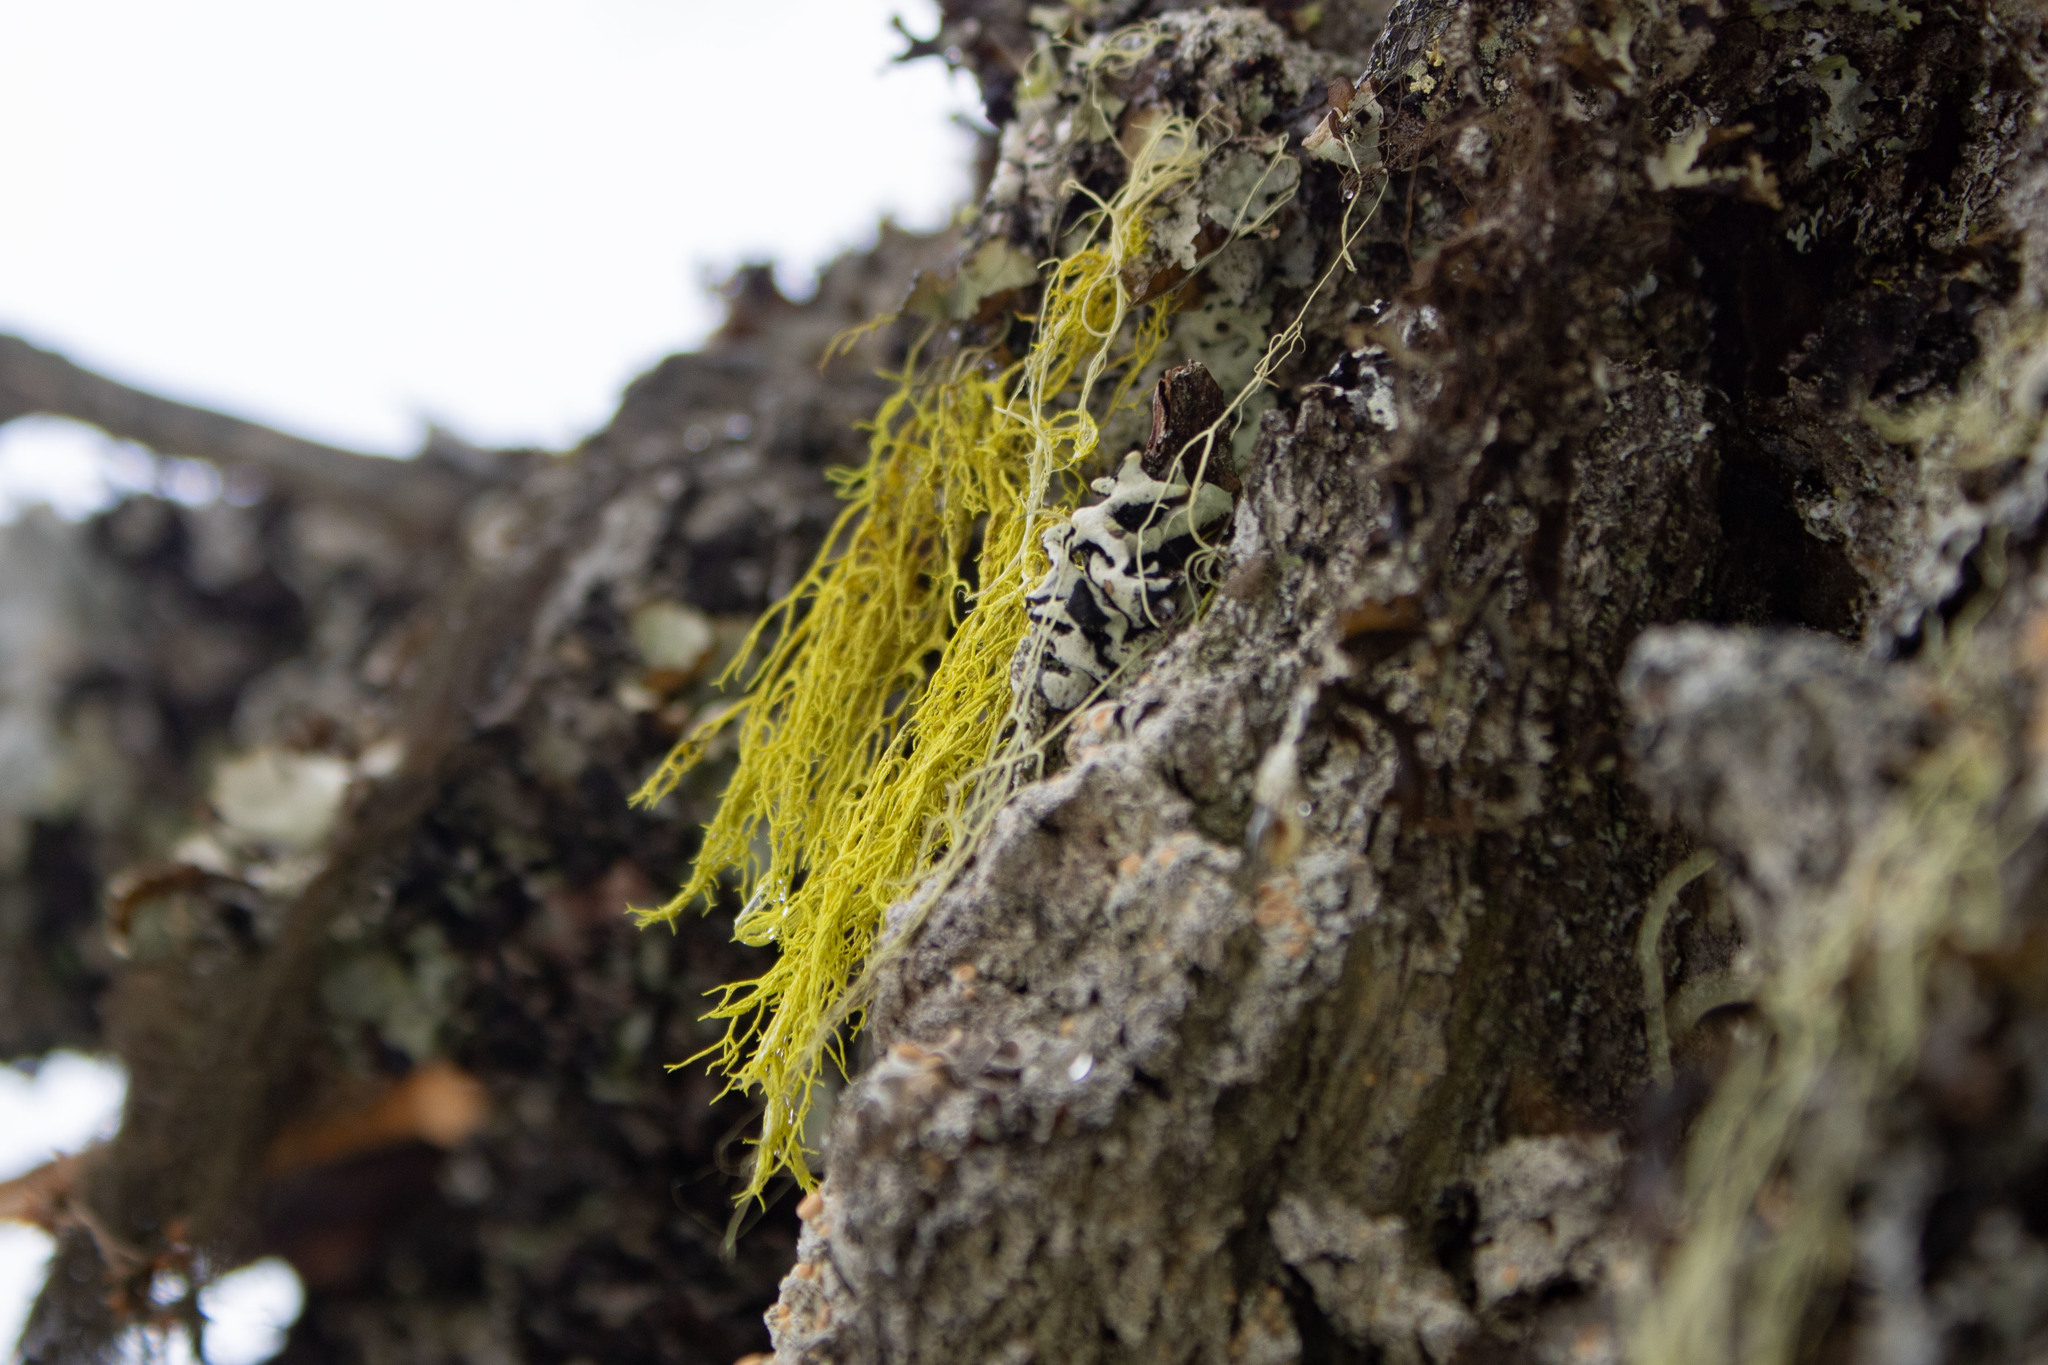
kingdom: Fungi
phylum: Ascomycota
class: Lecanoromycetes
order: Lecanorales
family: Parmeliaceae
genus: Letharia
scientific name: Letharia vulpina
